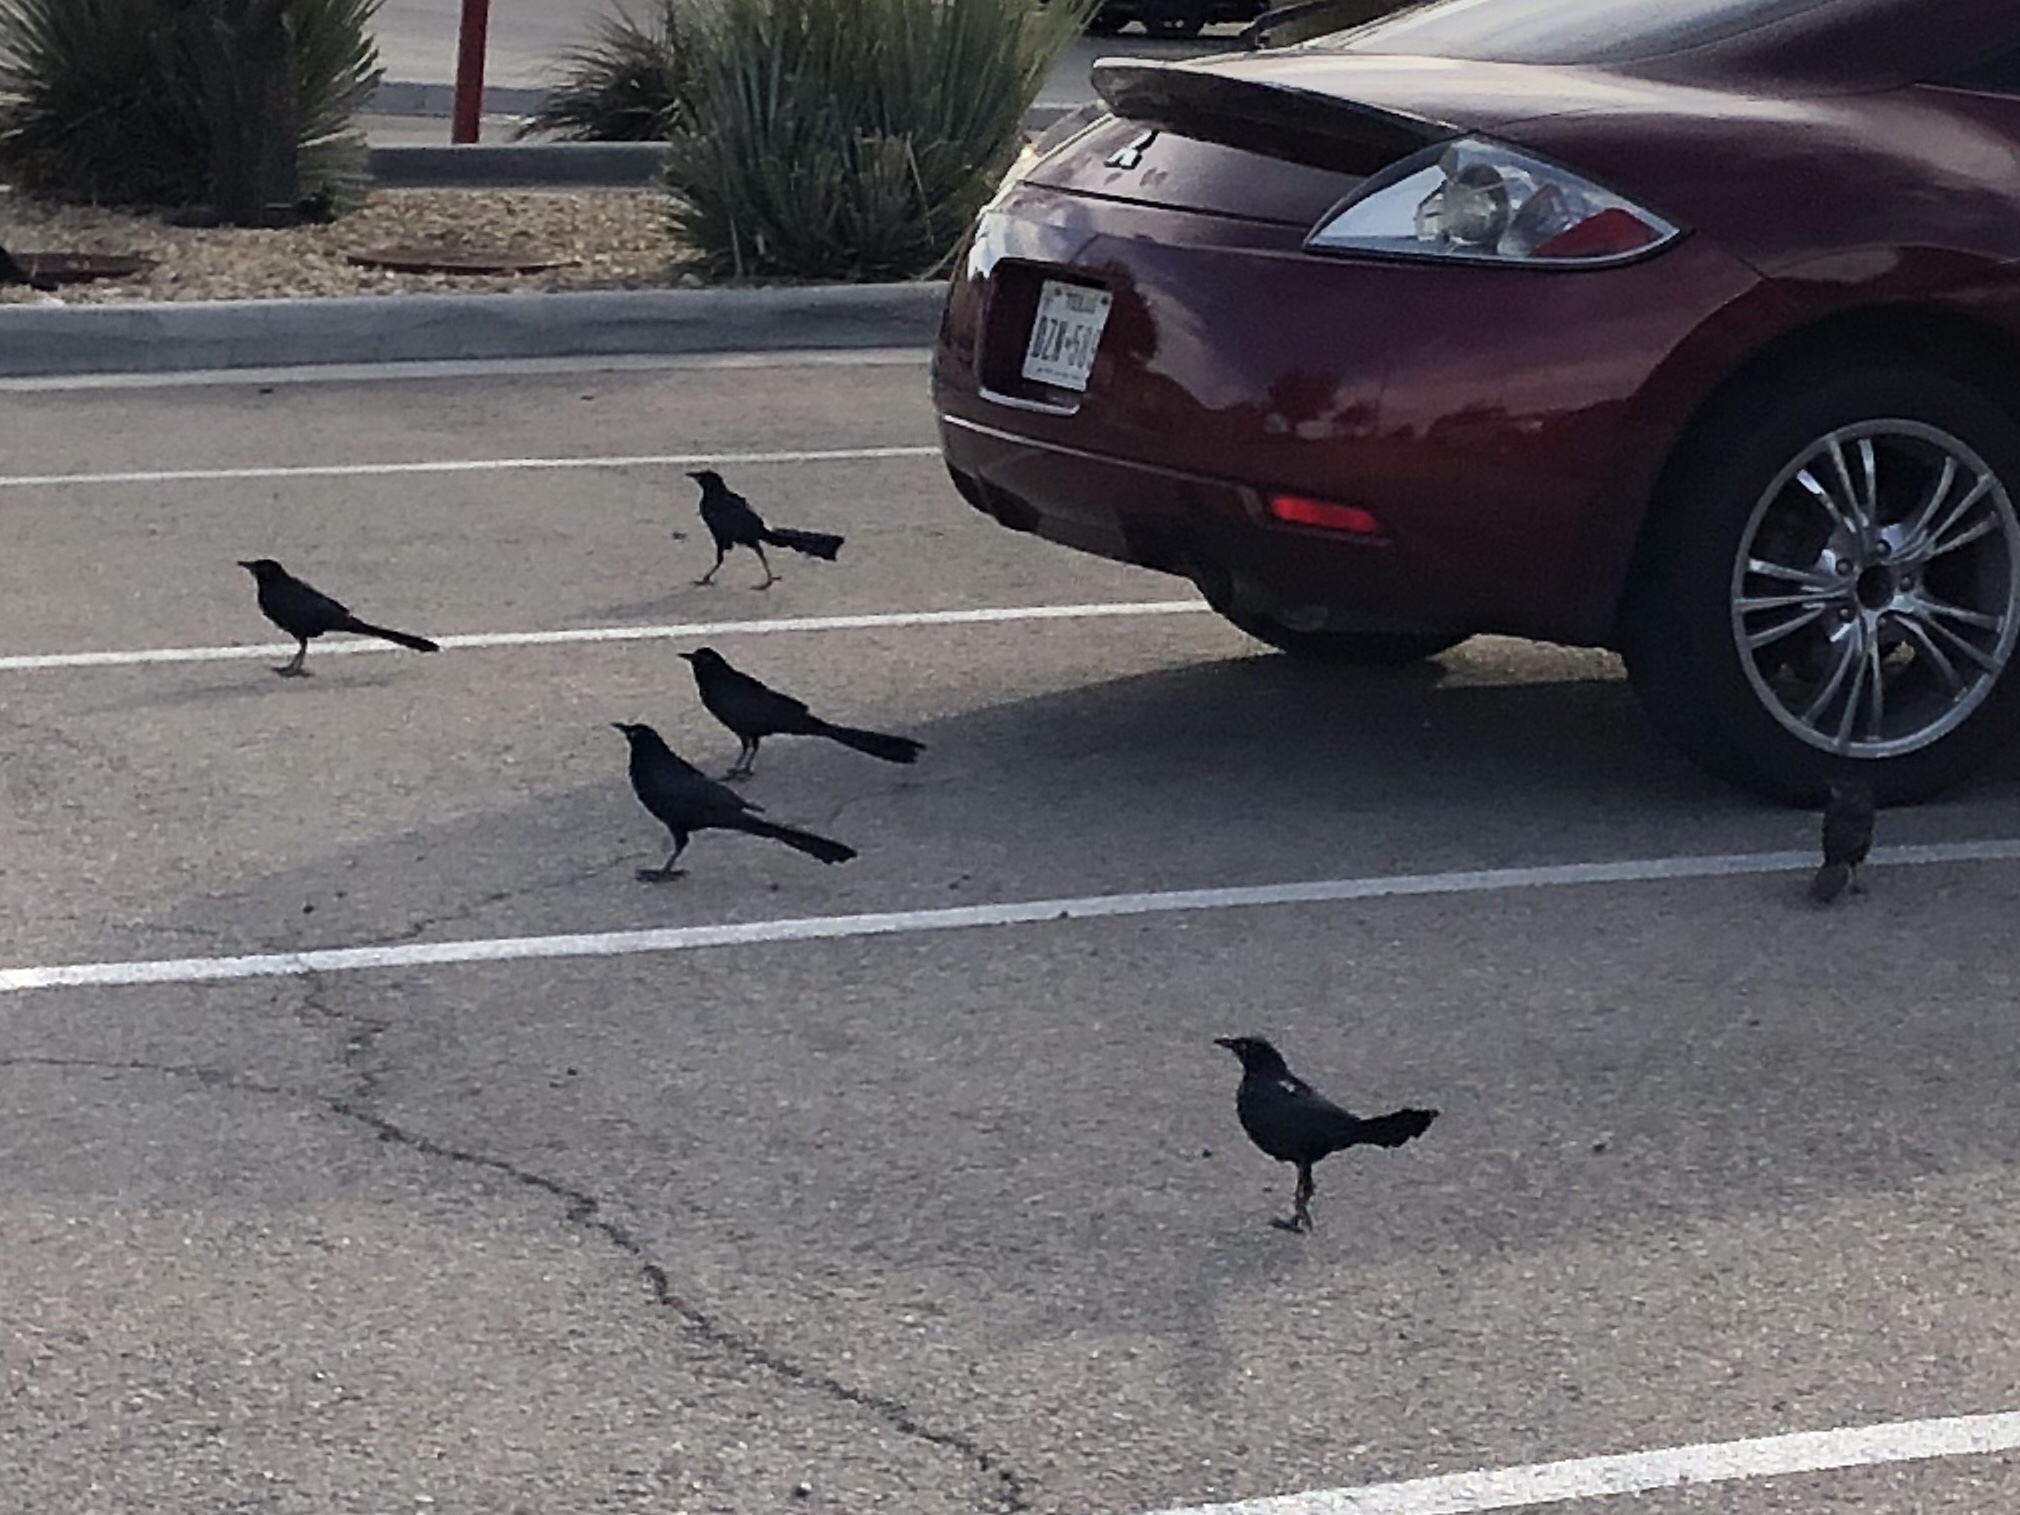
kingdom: Animalia
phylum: Chordata
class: Aves
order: Passeriformes
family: Icteridae
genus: Quiscalus
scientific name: Quiscalus mexicanus
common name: Great-tailed grackle
